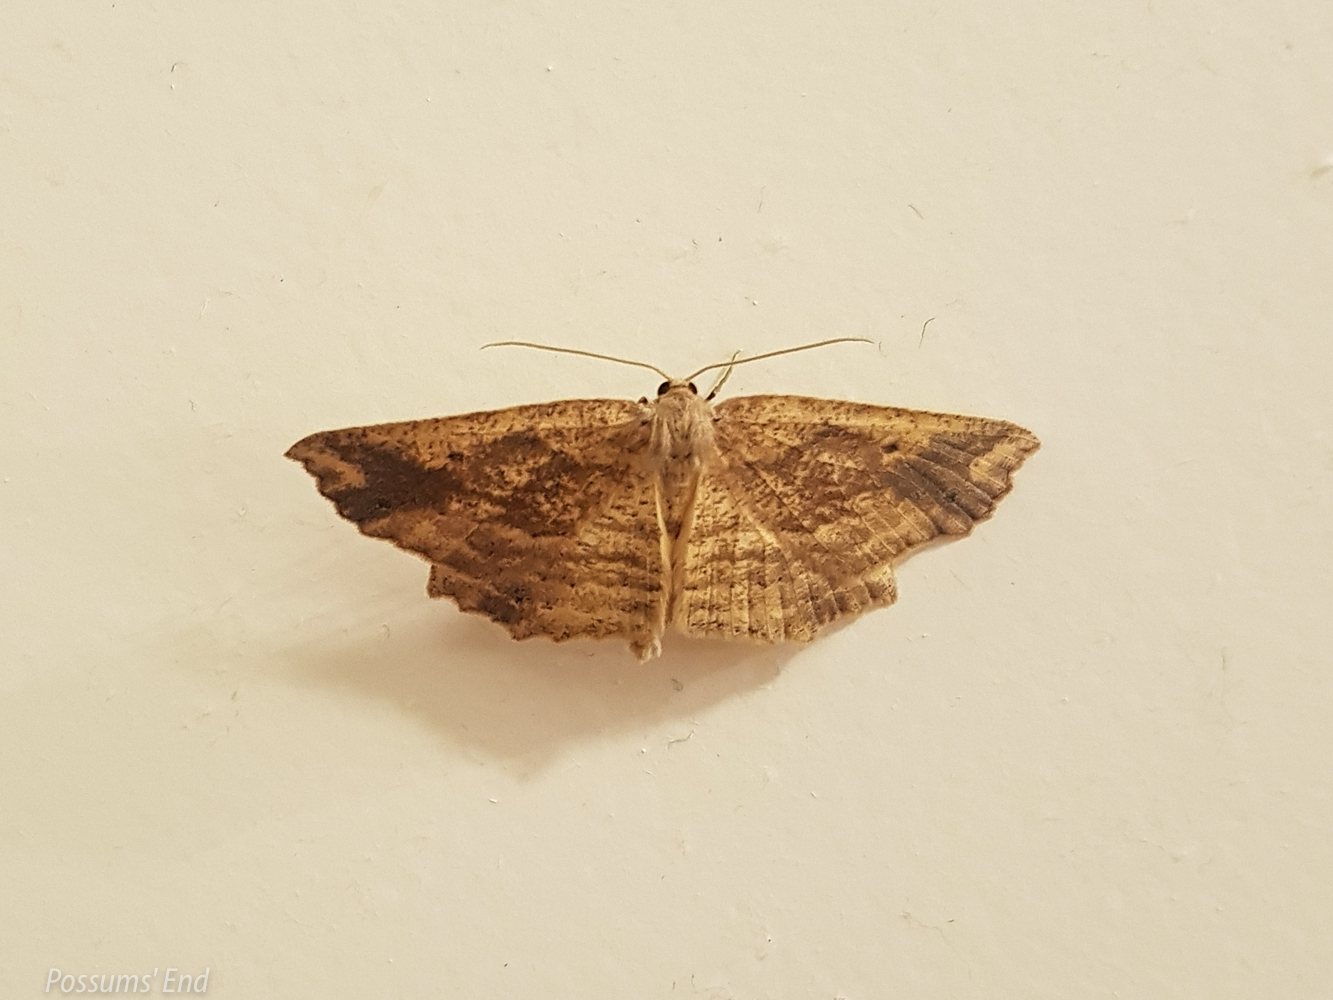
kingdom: Animalia
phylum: Arthropoda
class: Insecta
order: Lepidoptera
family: Geometridae
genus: Xyridacma
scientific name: Xyridacma veronicae
